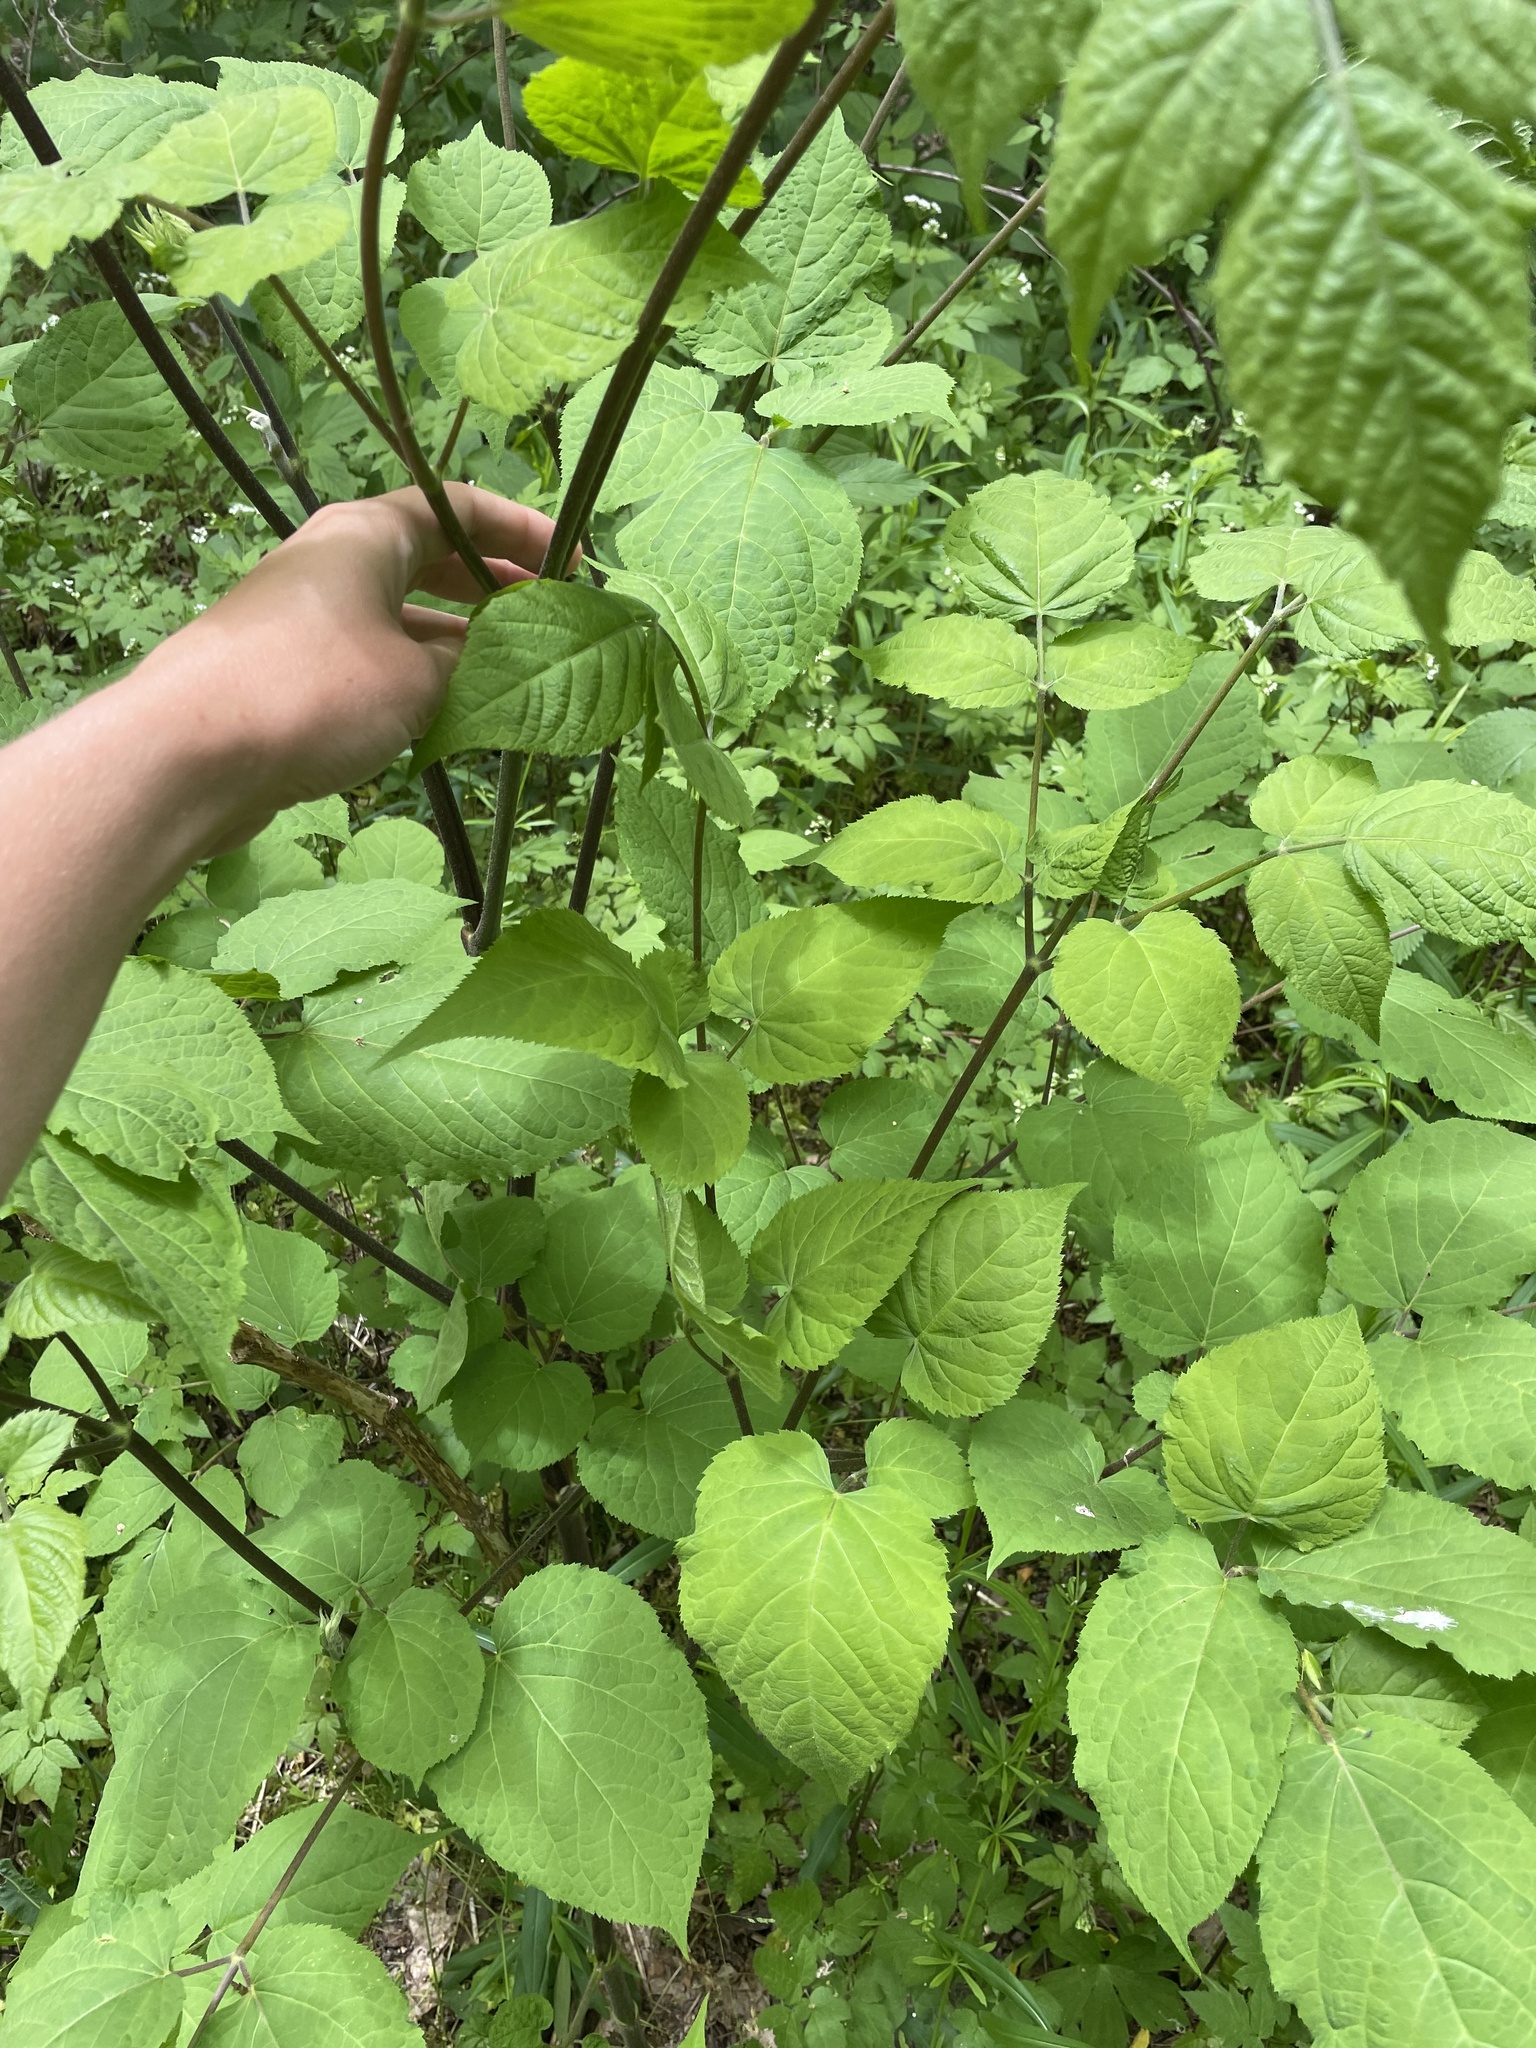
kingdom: Plantae
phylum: Tracheophyta
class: Magnoliopsida
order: Apiales
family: Araliaceae
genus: Aralia
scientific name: Aralia racemosa
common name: American-spikenard
